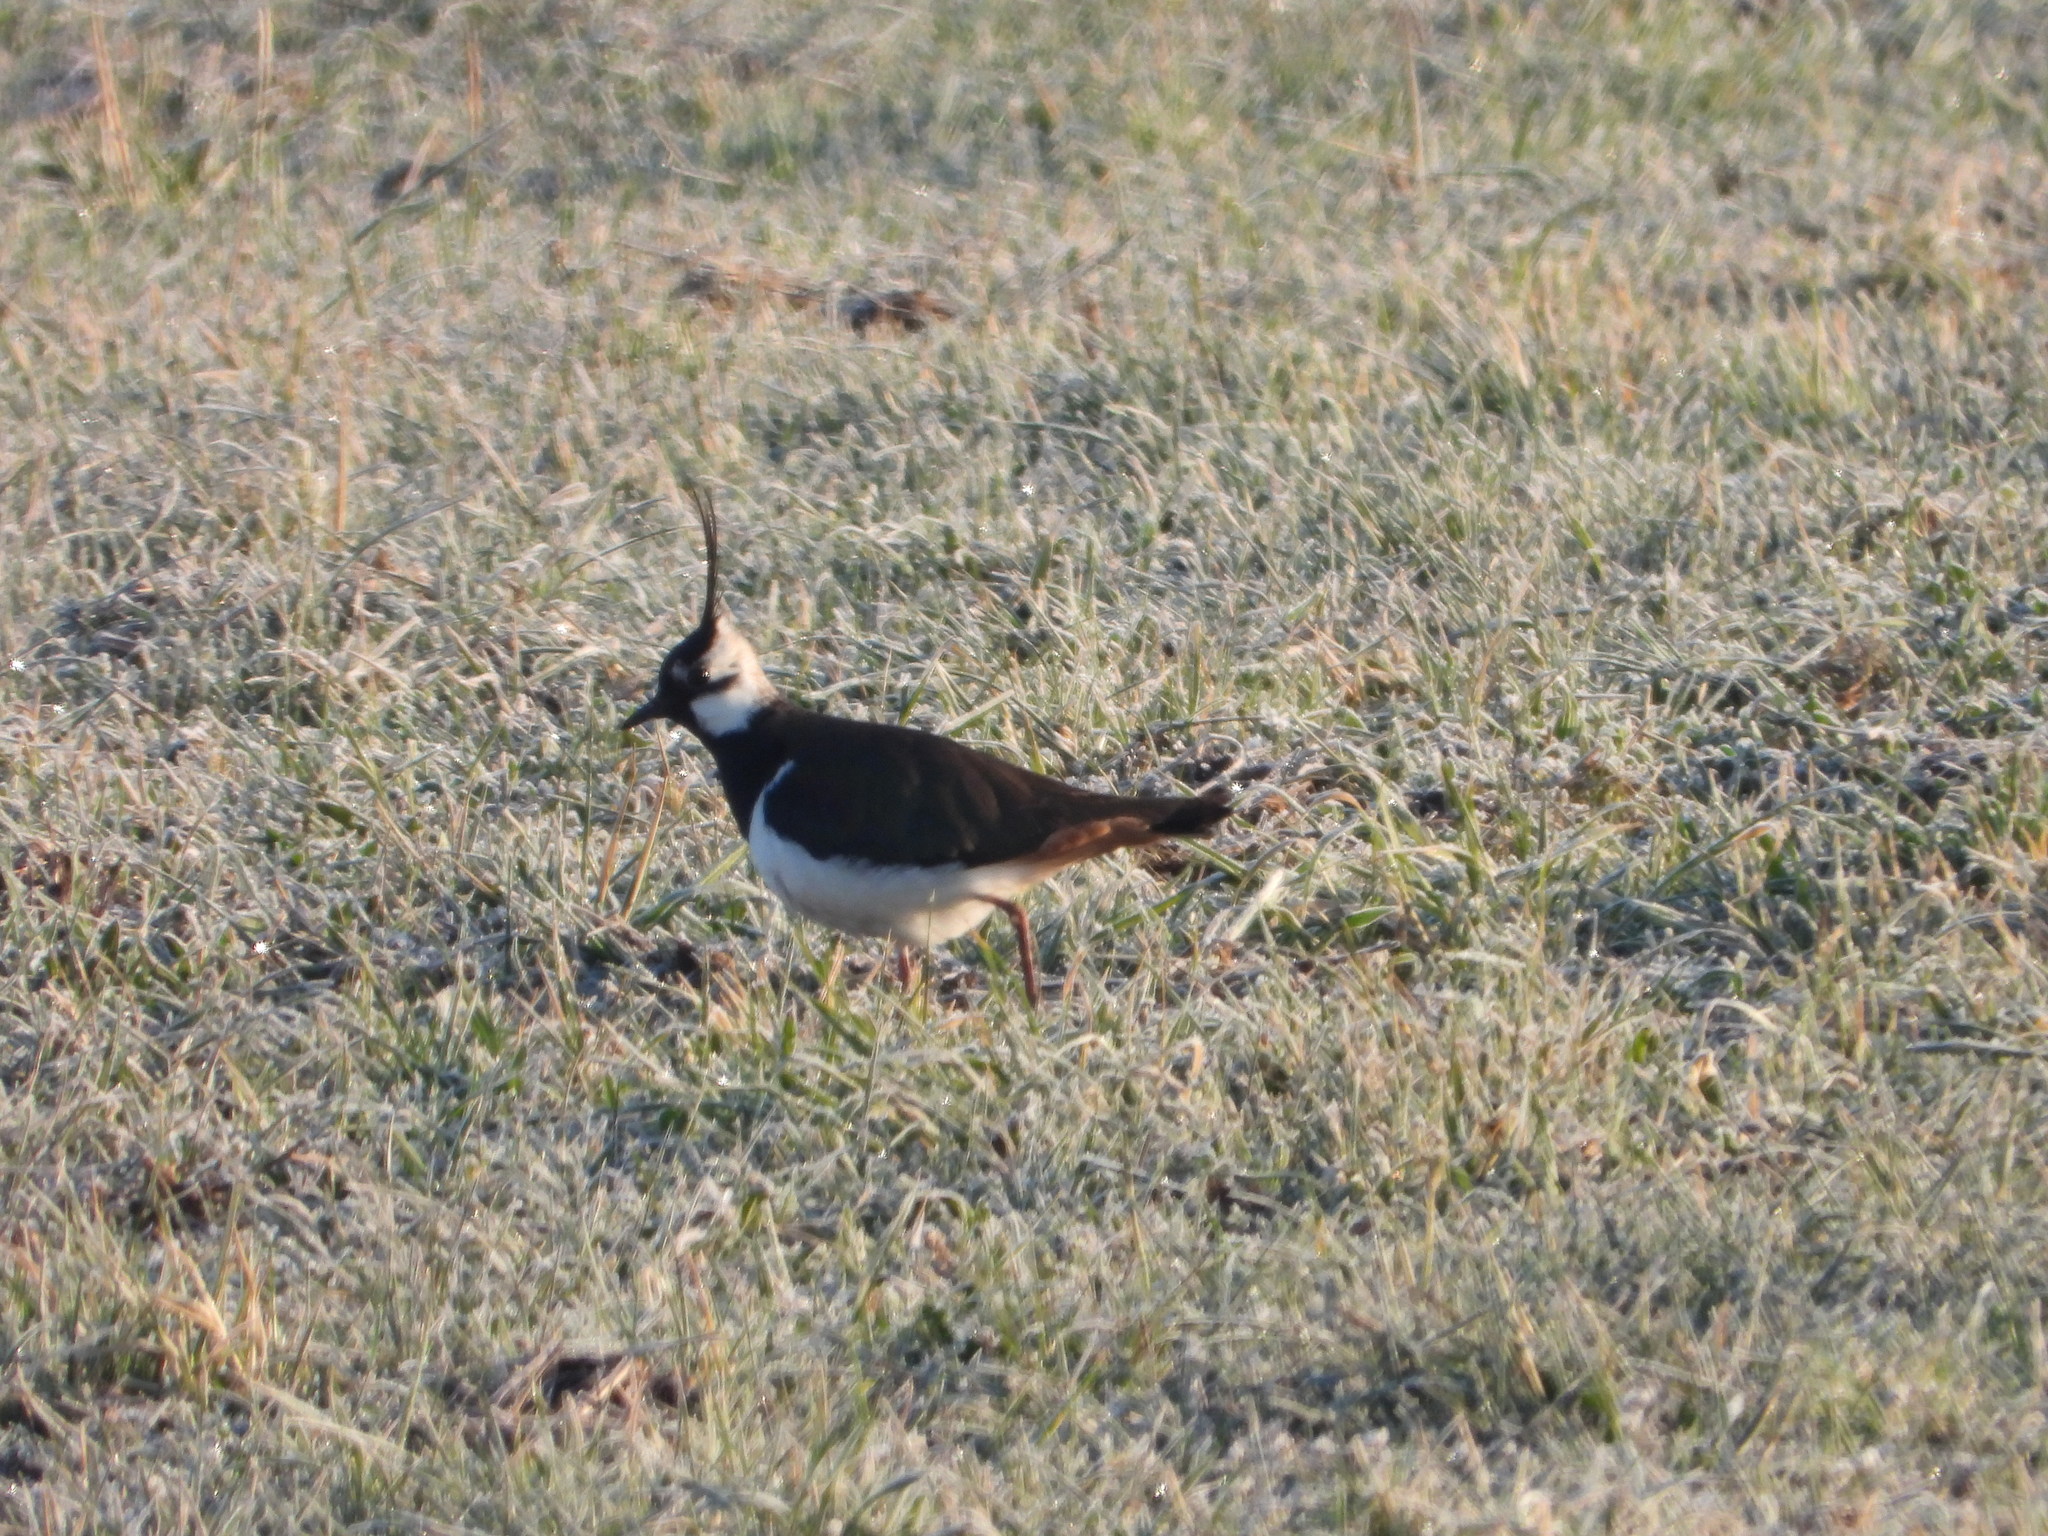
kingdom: Animalia
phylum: Chordata
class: Aves
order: Charadriiformes
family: Charadriidae
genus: Vanellus
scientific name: Vanellus vanellus
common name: Northern lapwing
